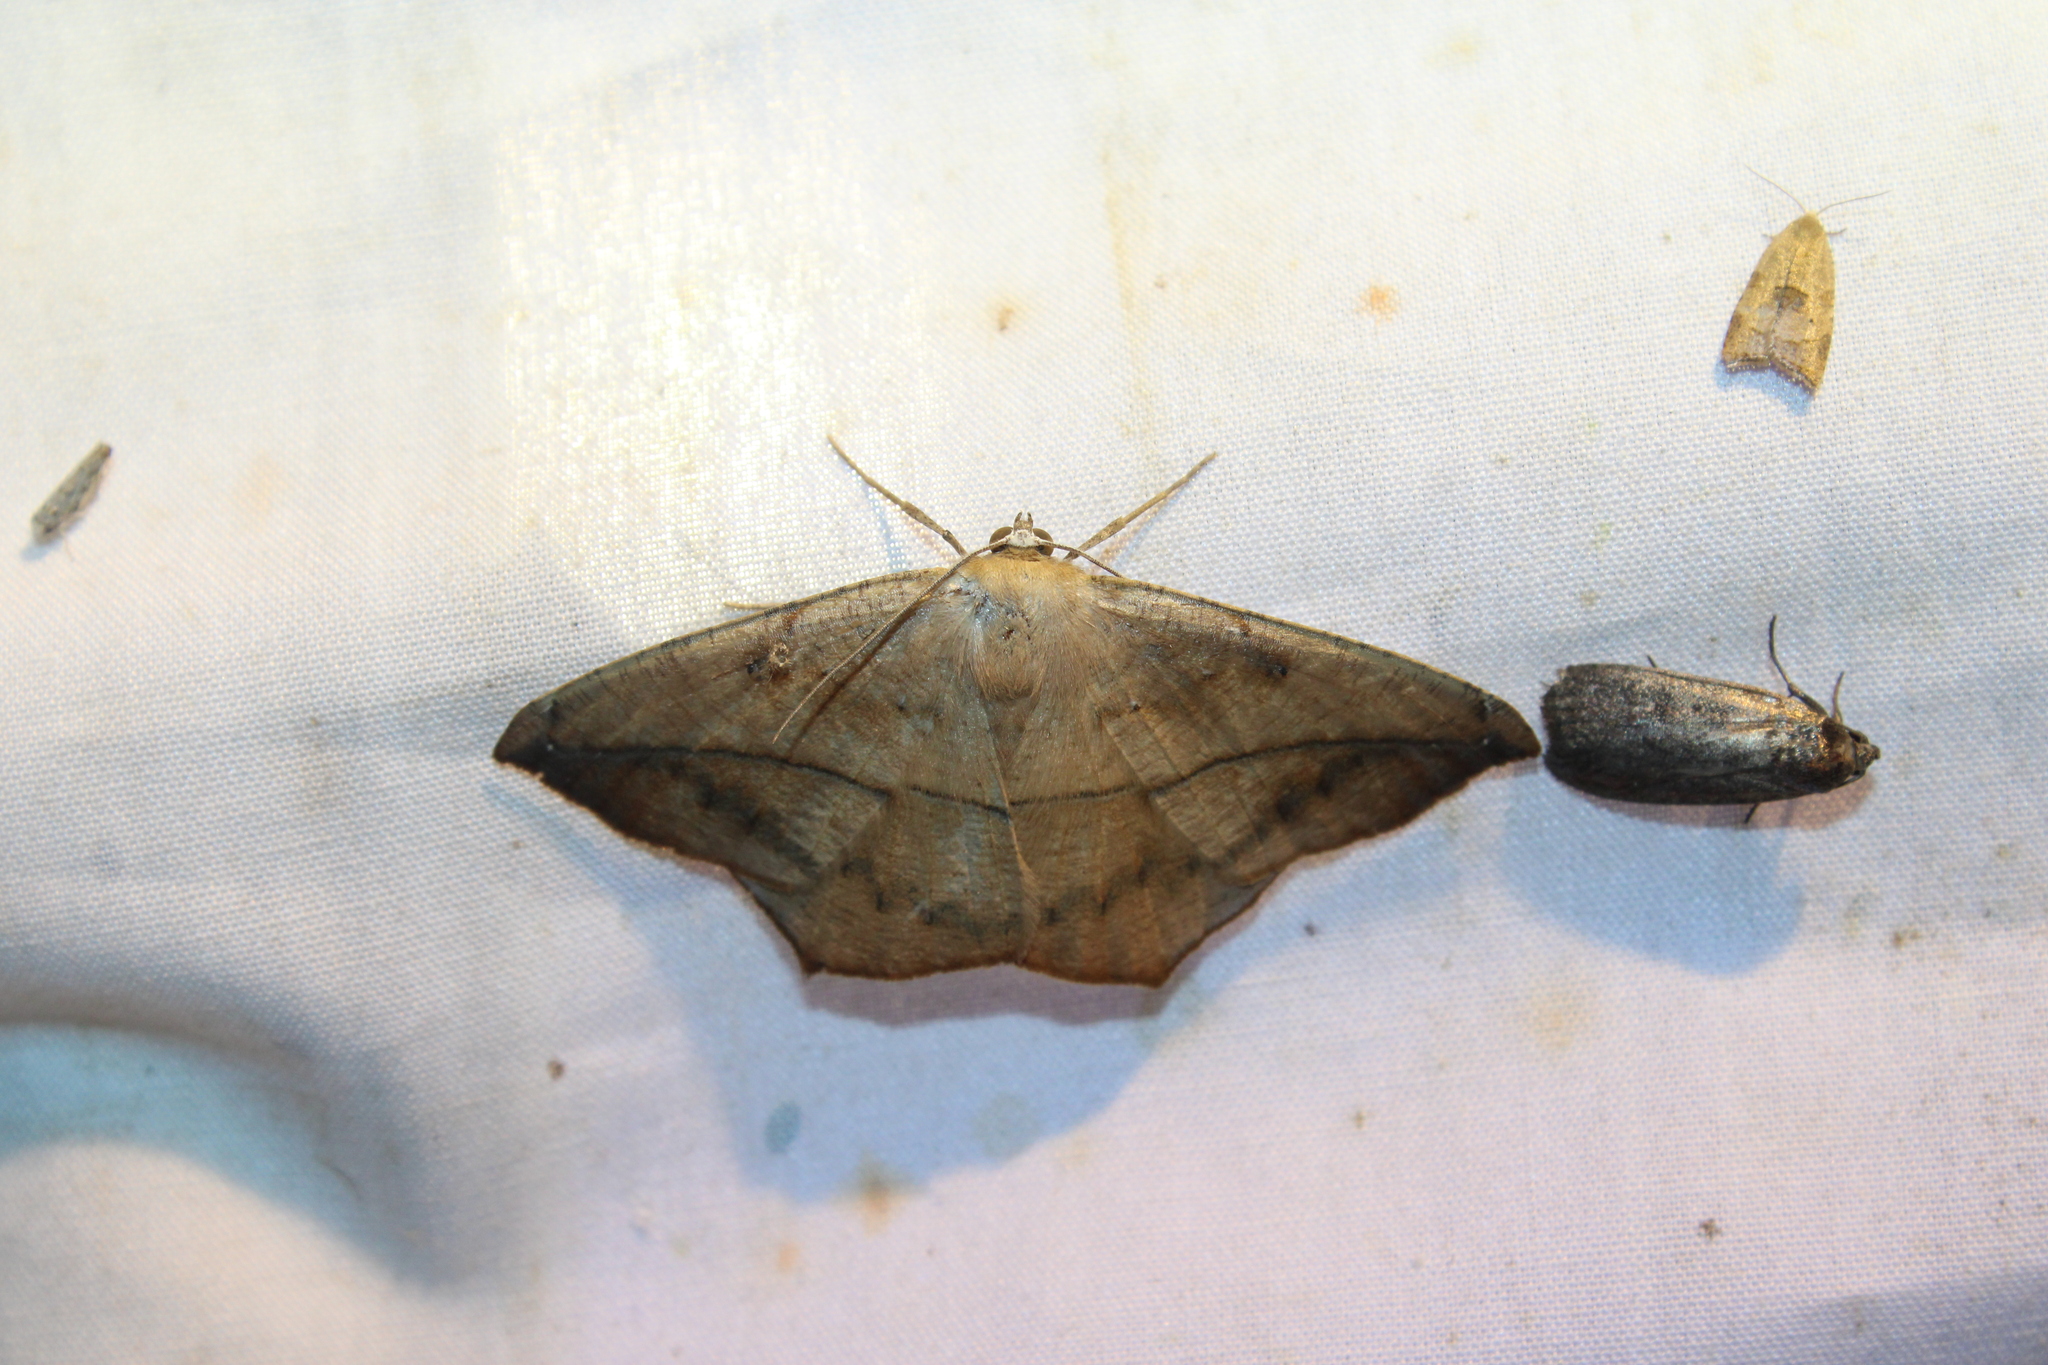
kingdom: Animalia
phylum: Arthropoda
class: Insecta
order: Lepidoptera
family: Geometridae
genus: Prochoerodes
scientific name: Prochoerodes lineola
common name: Large maple spanworm
